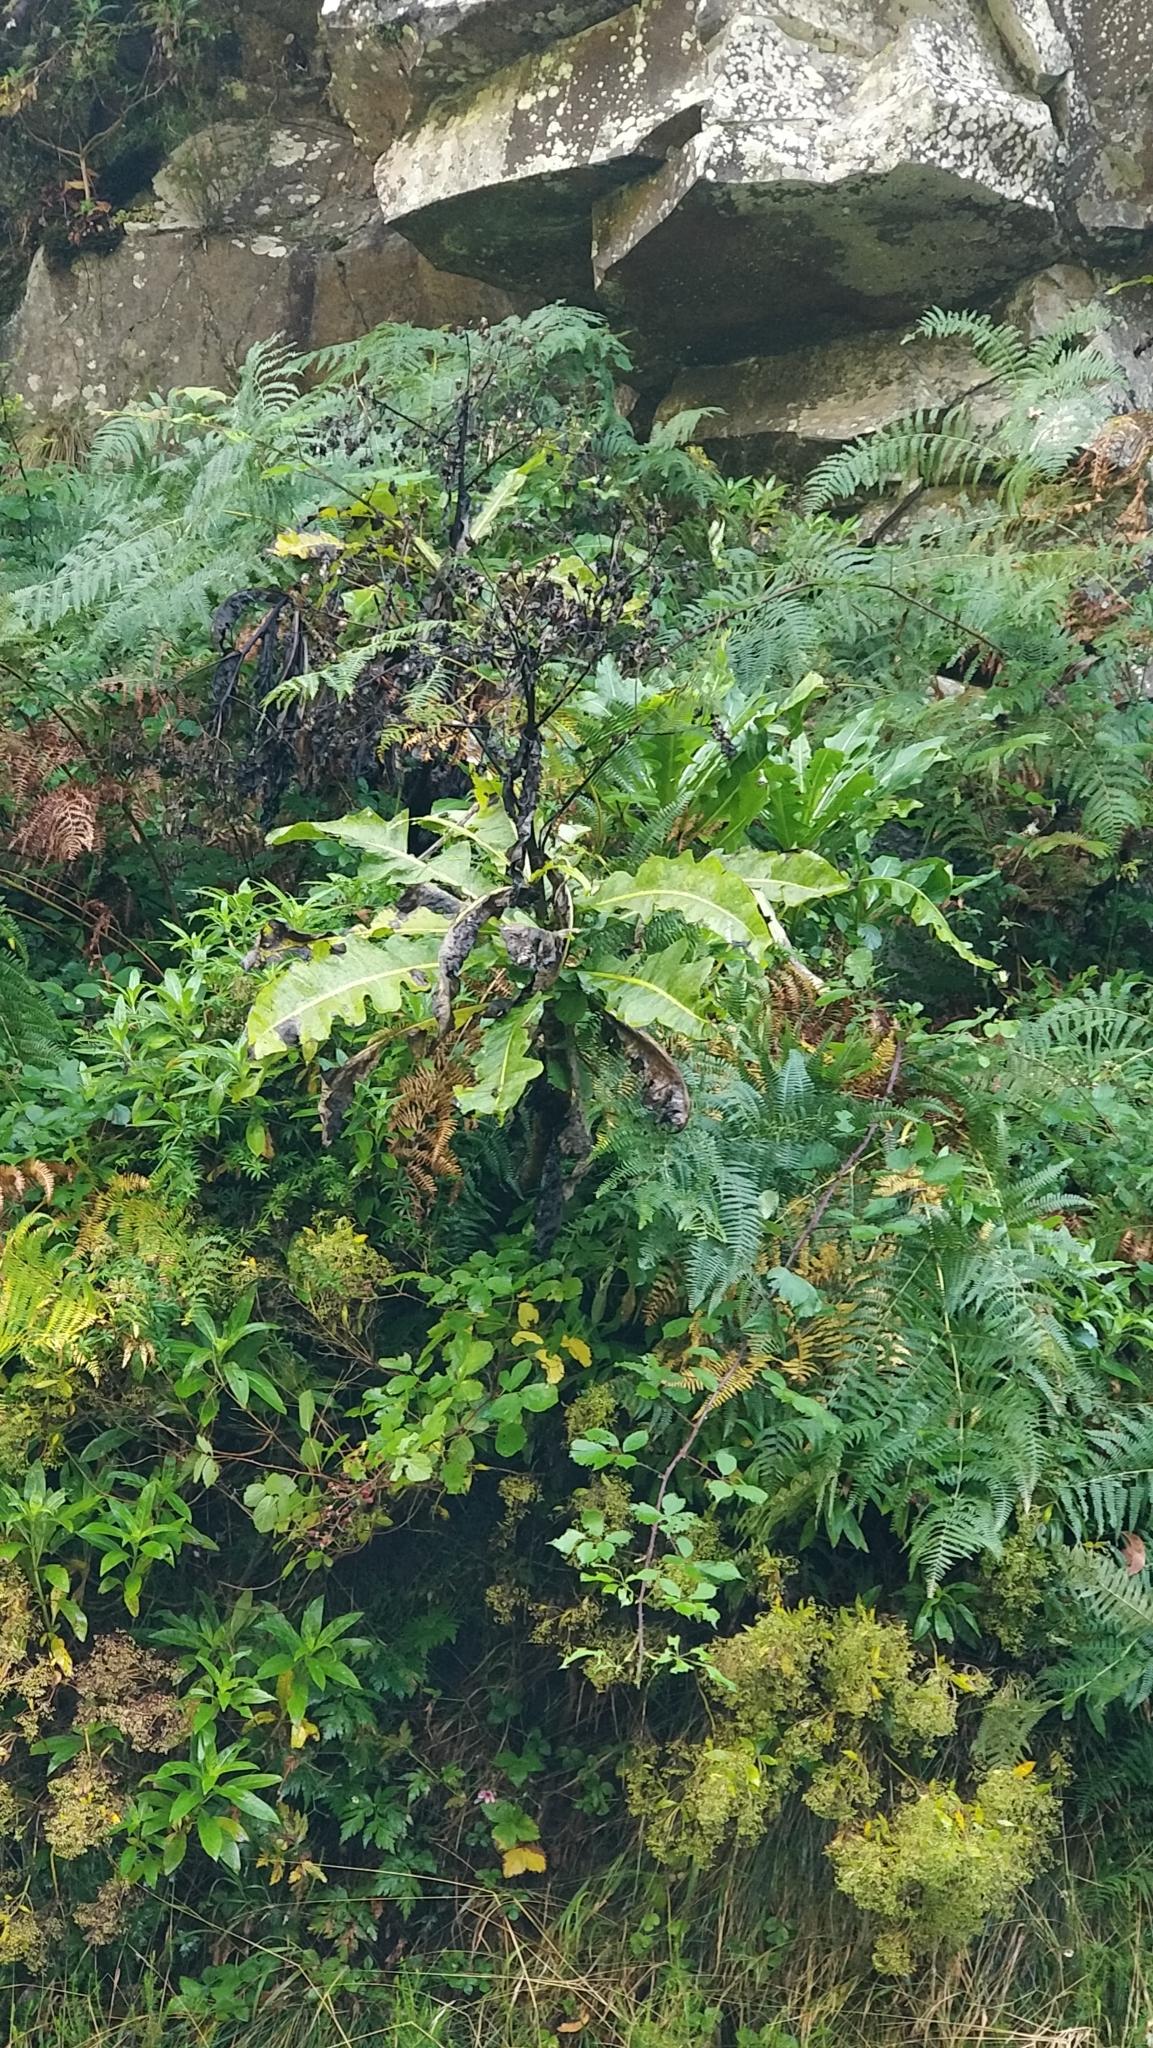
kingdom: Plantae
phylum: Tracheophyta
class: Magnoliopsida
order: Asterales
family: Asteraceae
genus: Sonchus
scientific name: Sonchus fruticosus
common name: Shrubby sow-thistle
